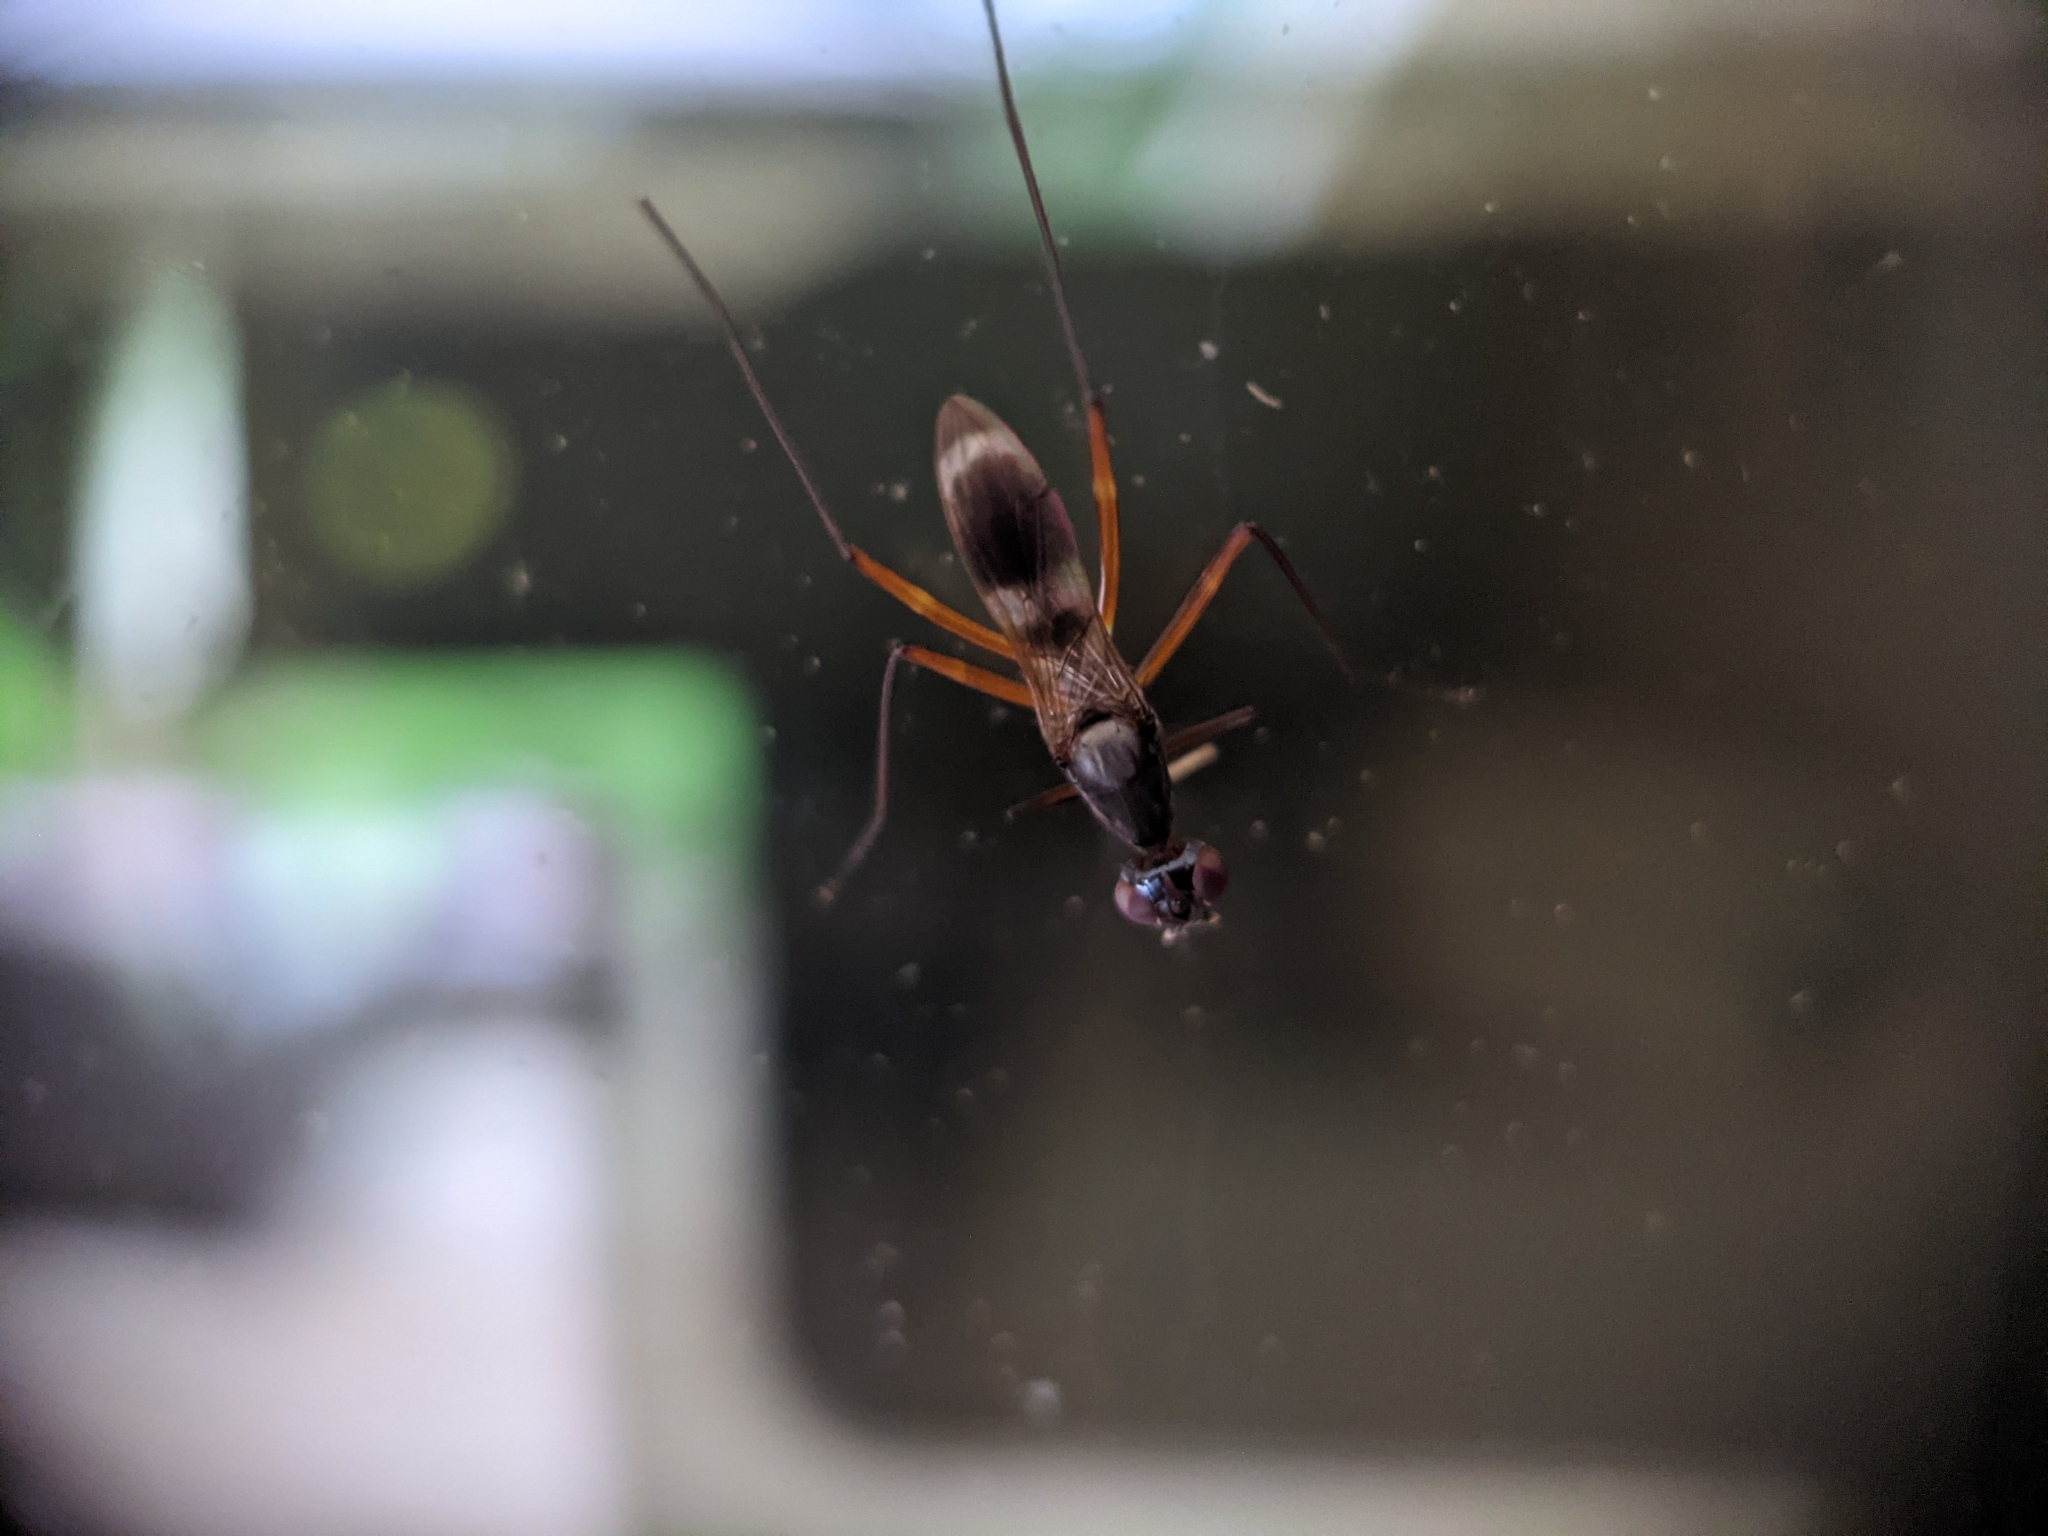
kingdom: Animalia
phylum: Arthropoda
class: Insecta
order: Diptera
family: Micropezidae
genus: Taeniaptera
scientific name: Taeniaptera trivittata
